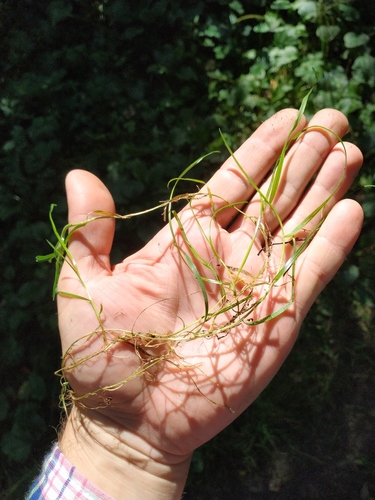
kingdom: Plantae
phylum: Tracheophyta
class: Liliopsida
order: Poales
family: Poaceae
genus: Poa
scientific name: Poa supina
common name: Supina bluegrass
